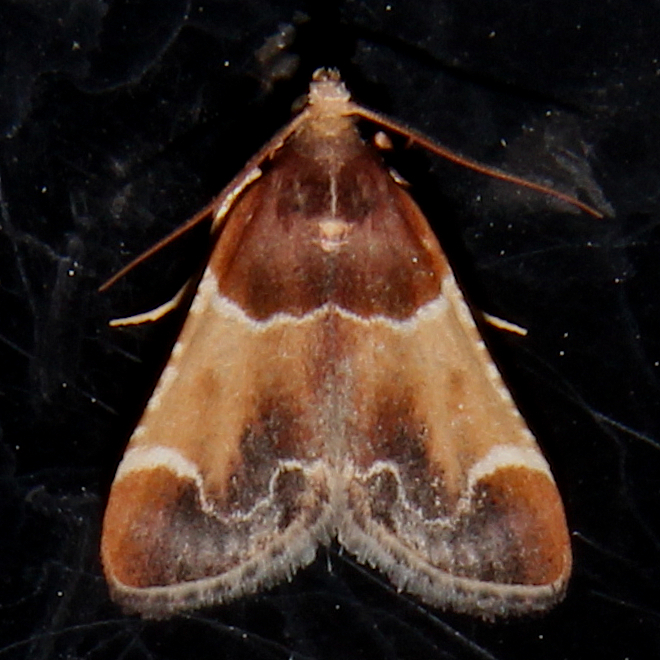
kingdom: Animalia
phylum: Arthropoda
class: Insecta
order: Lepidoptera
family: Pyralidae
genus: Pyralis
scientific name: Pyralis farinalis
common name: Meal moth
